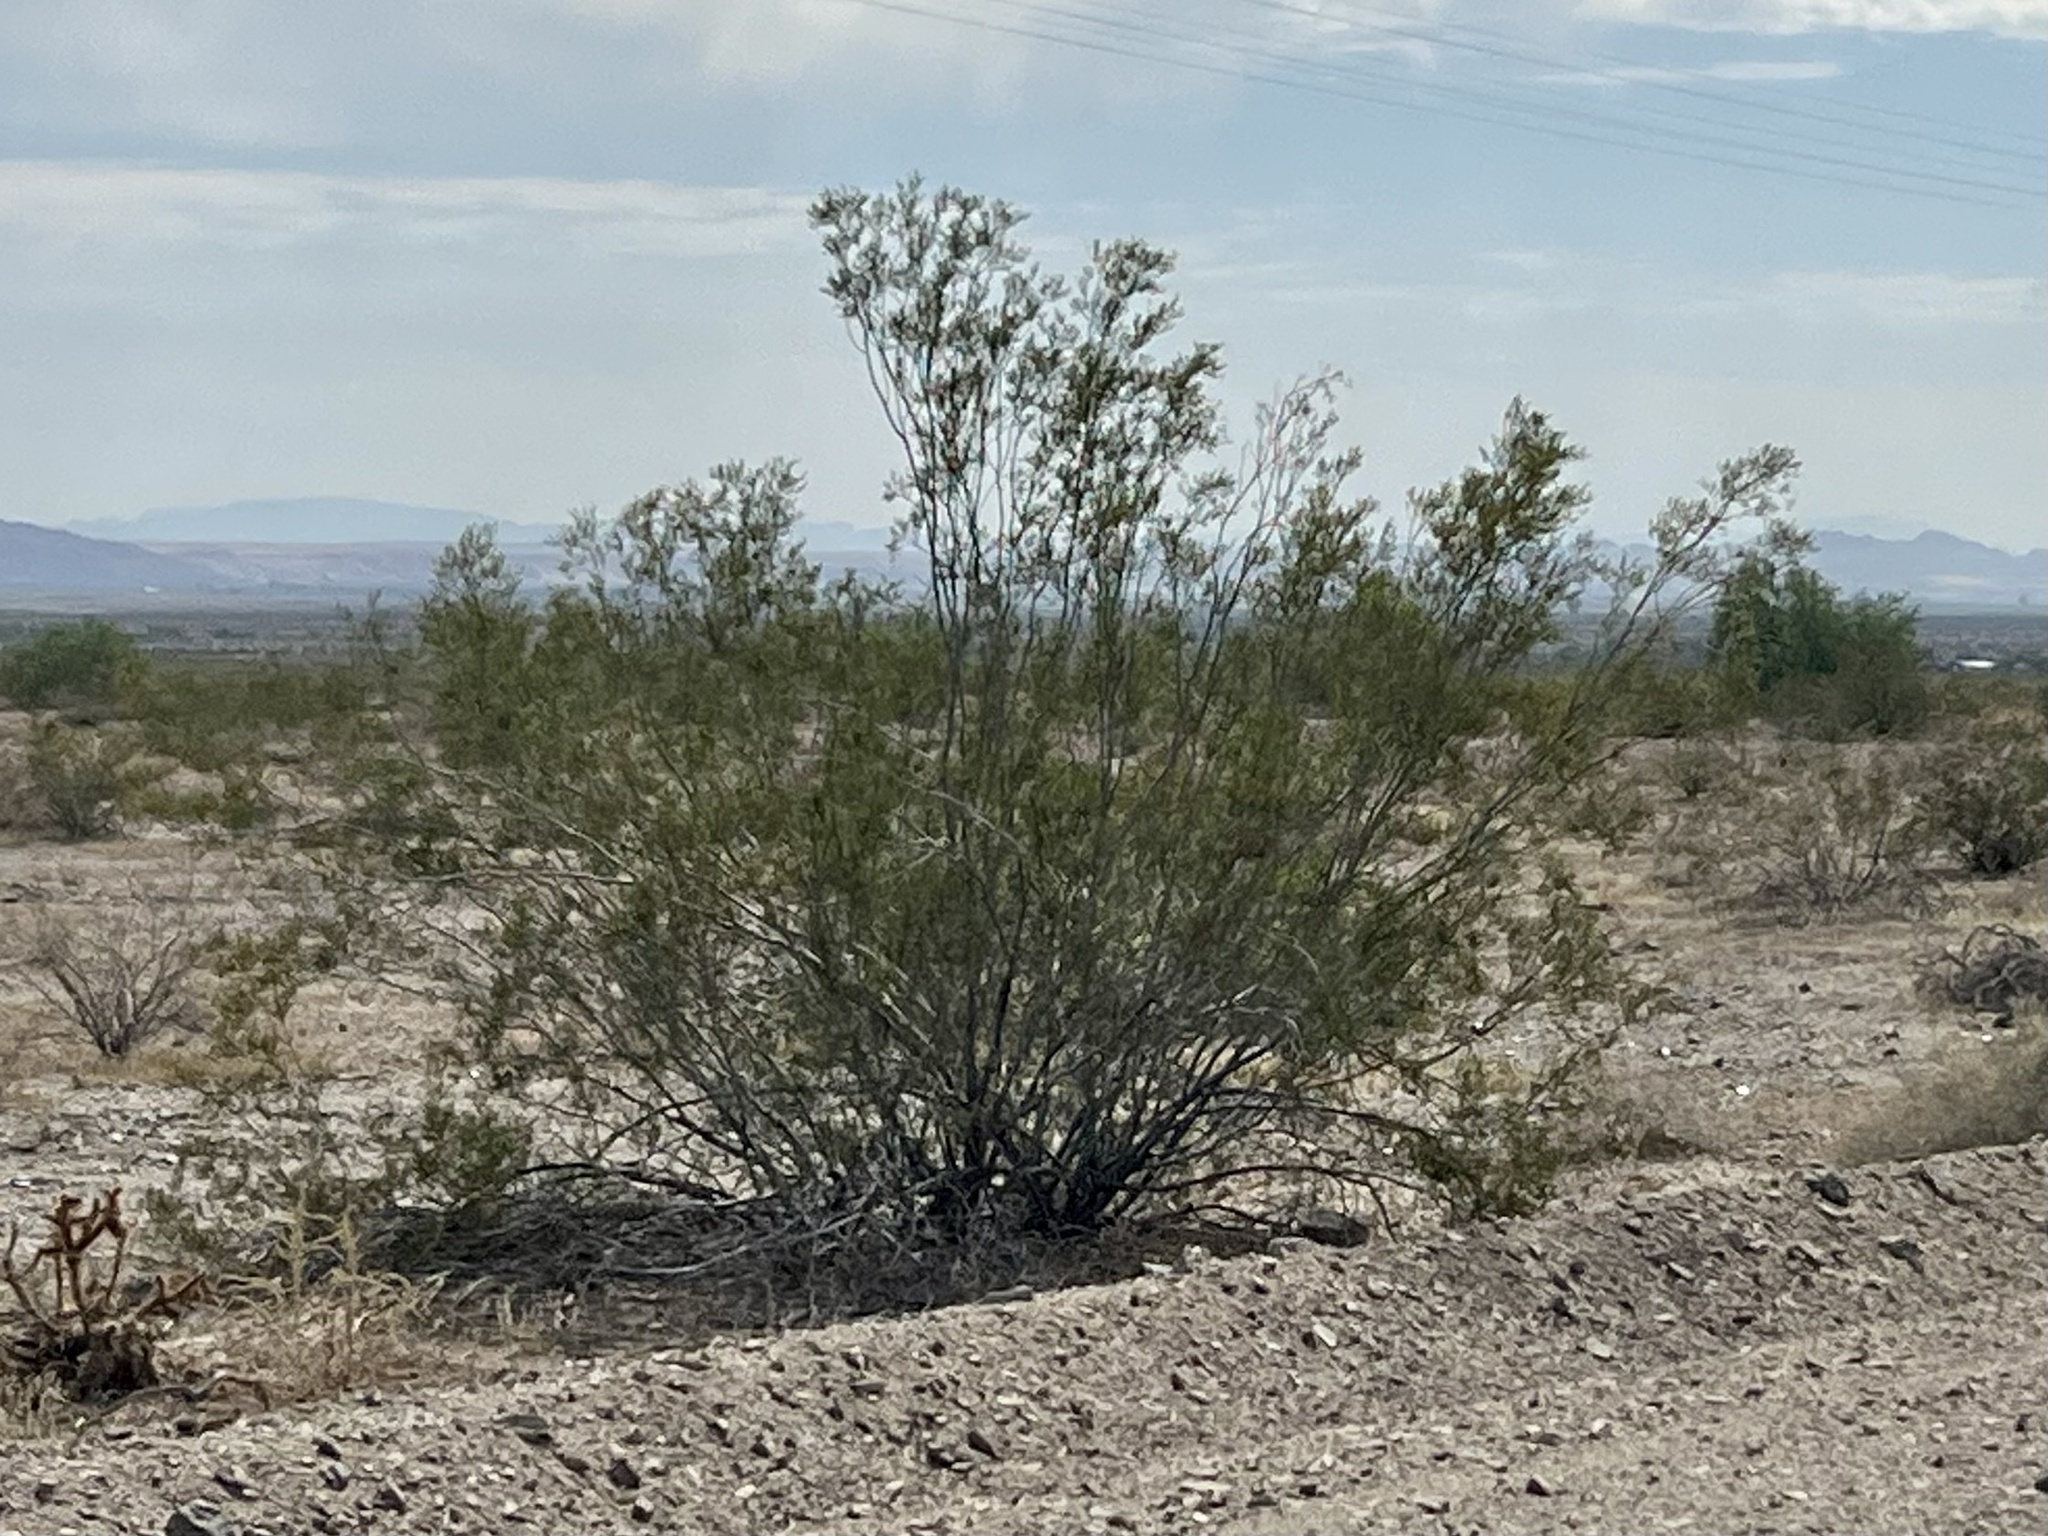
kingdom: Plantae
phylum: Tracheophyta
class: Magnoliopsida
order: Zygophyllales
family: Zygophyllaceae
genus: Larrea
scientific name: Larrea tridentata
